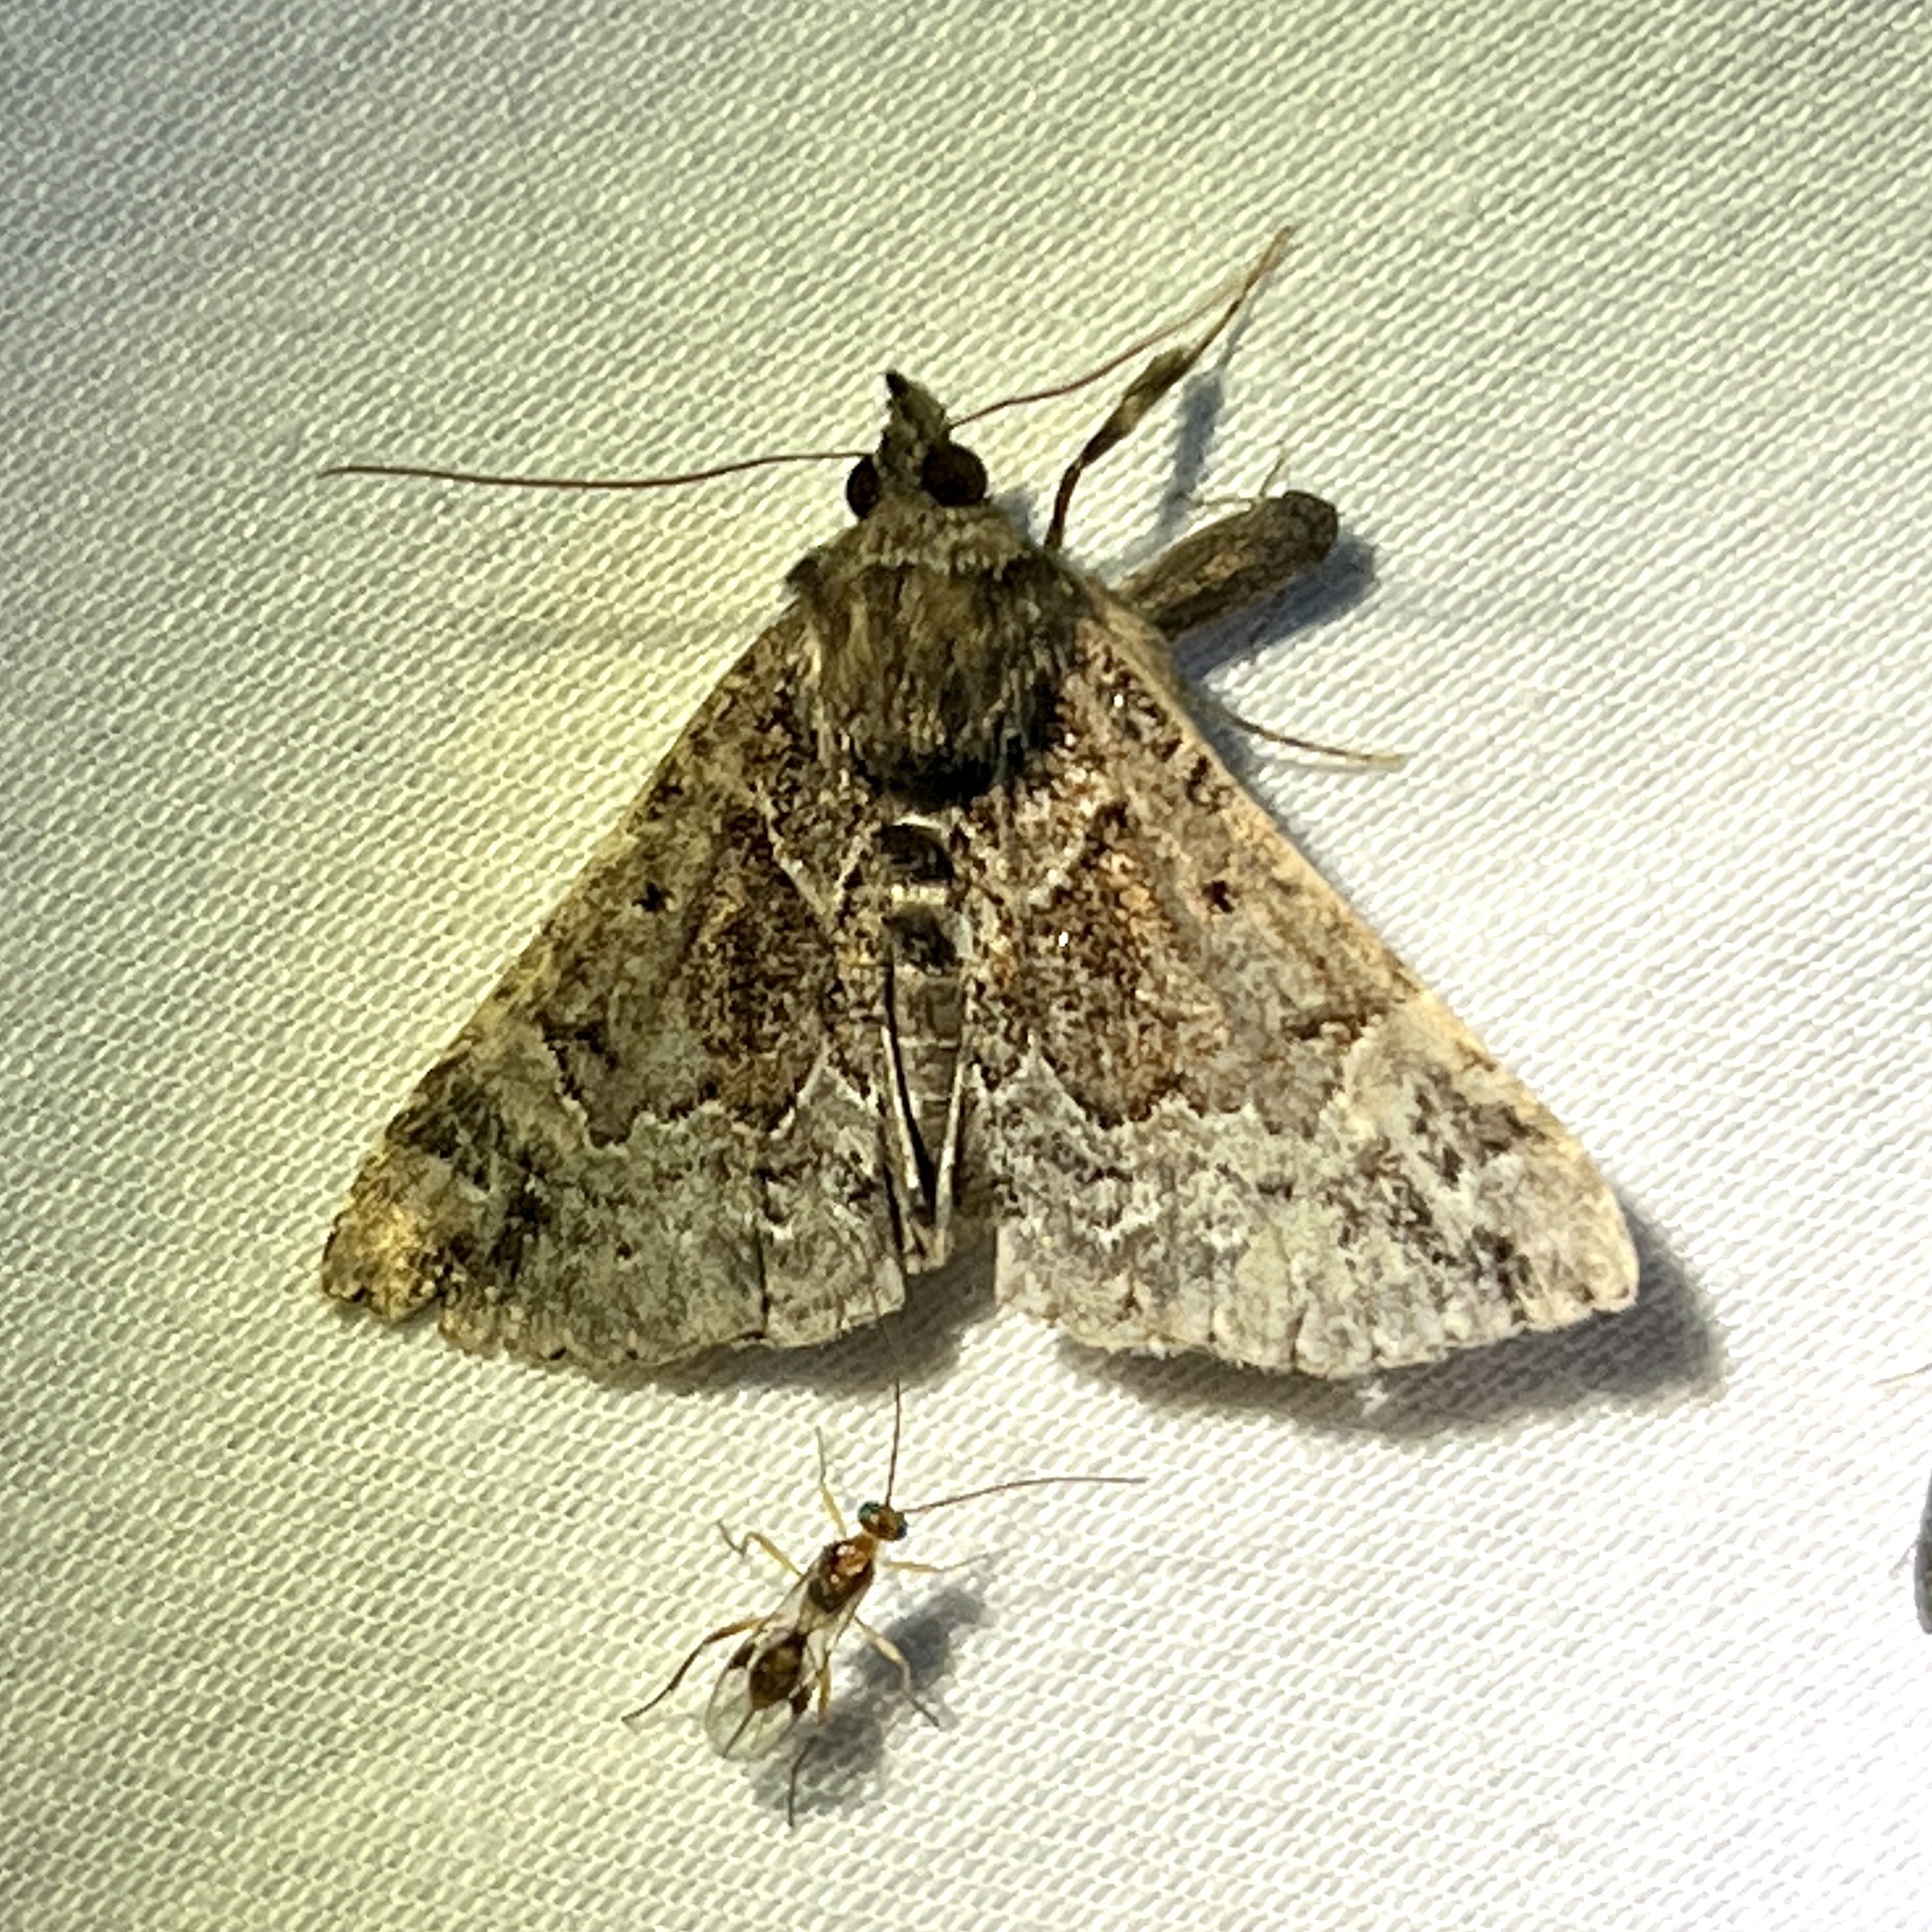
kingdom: Animalia
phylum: Arthropoda
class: Insecta
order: Lepidoptera
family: Erebidae
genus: Hypena
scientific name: Hypena palparia
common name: Mottled bomolocha moth
